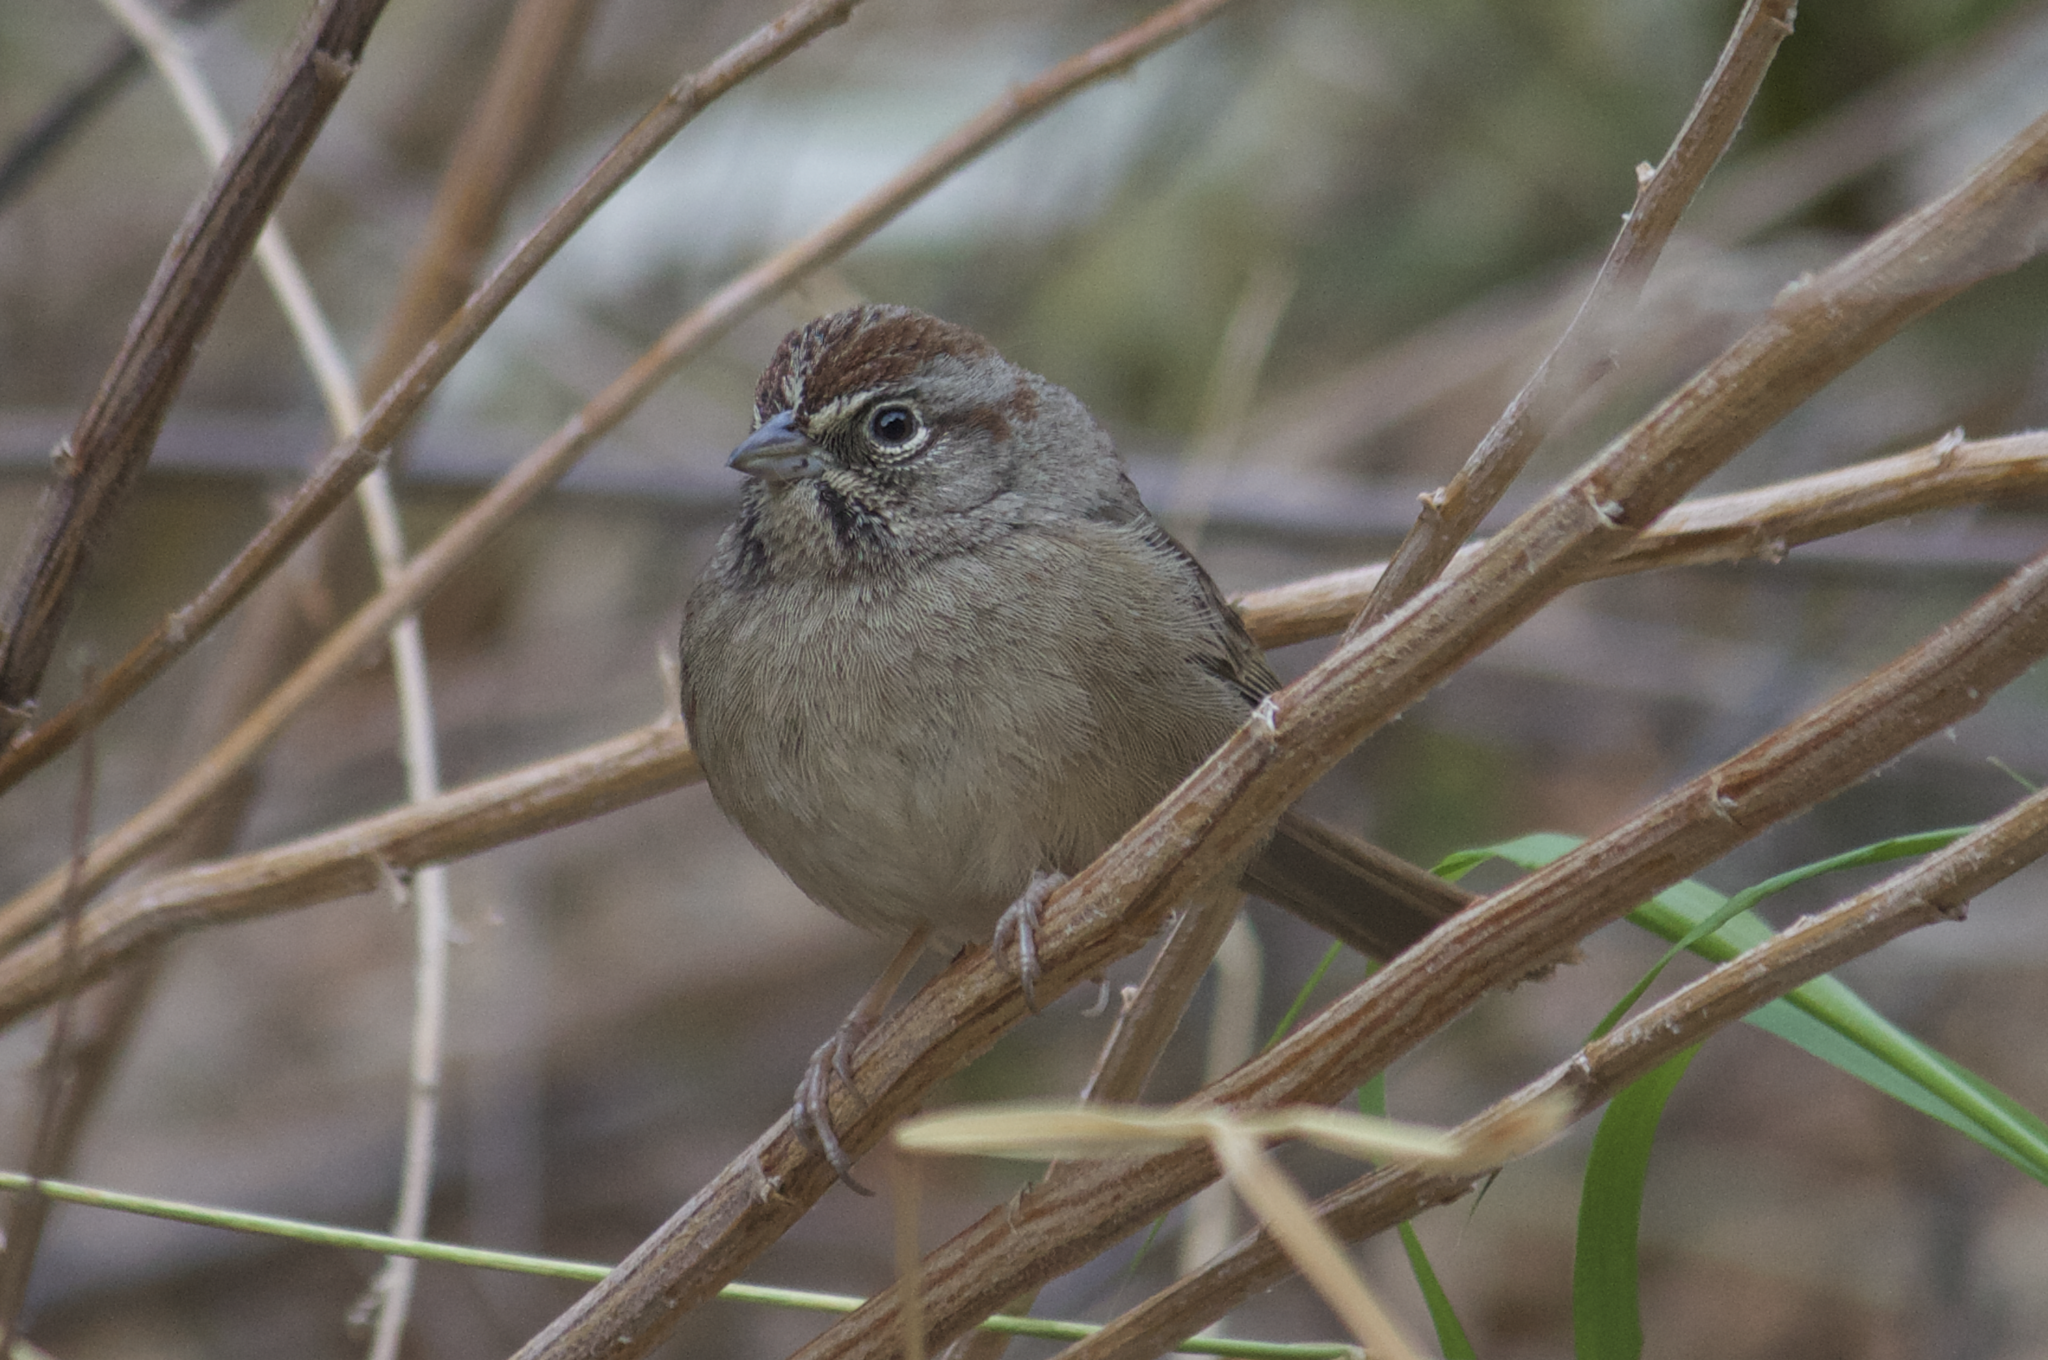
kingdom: Animalia
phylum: Chordata
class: Aves
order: Passeriformes
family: Passerellidae
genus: Aimophila
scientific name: Aimophila ruficeps
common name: Rufous-crowned sparrow
